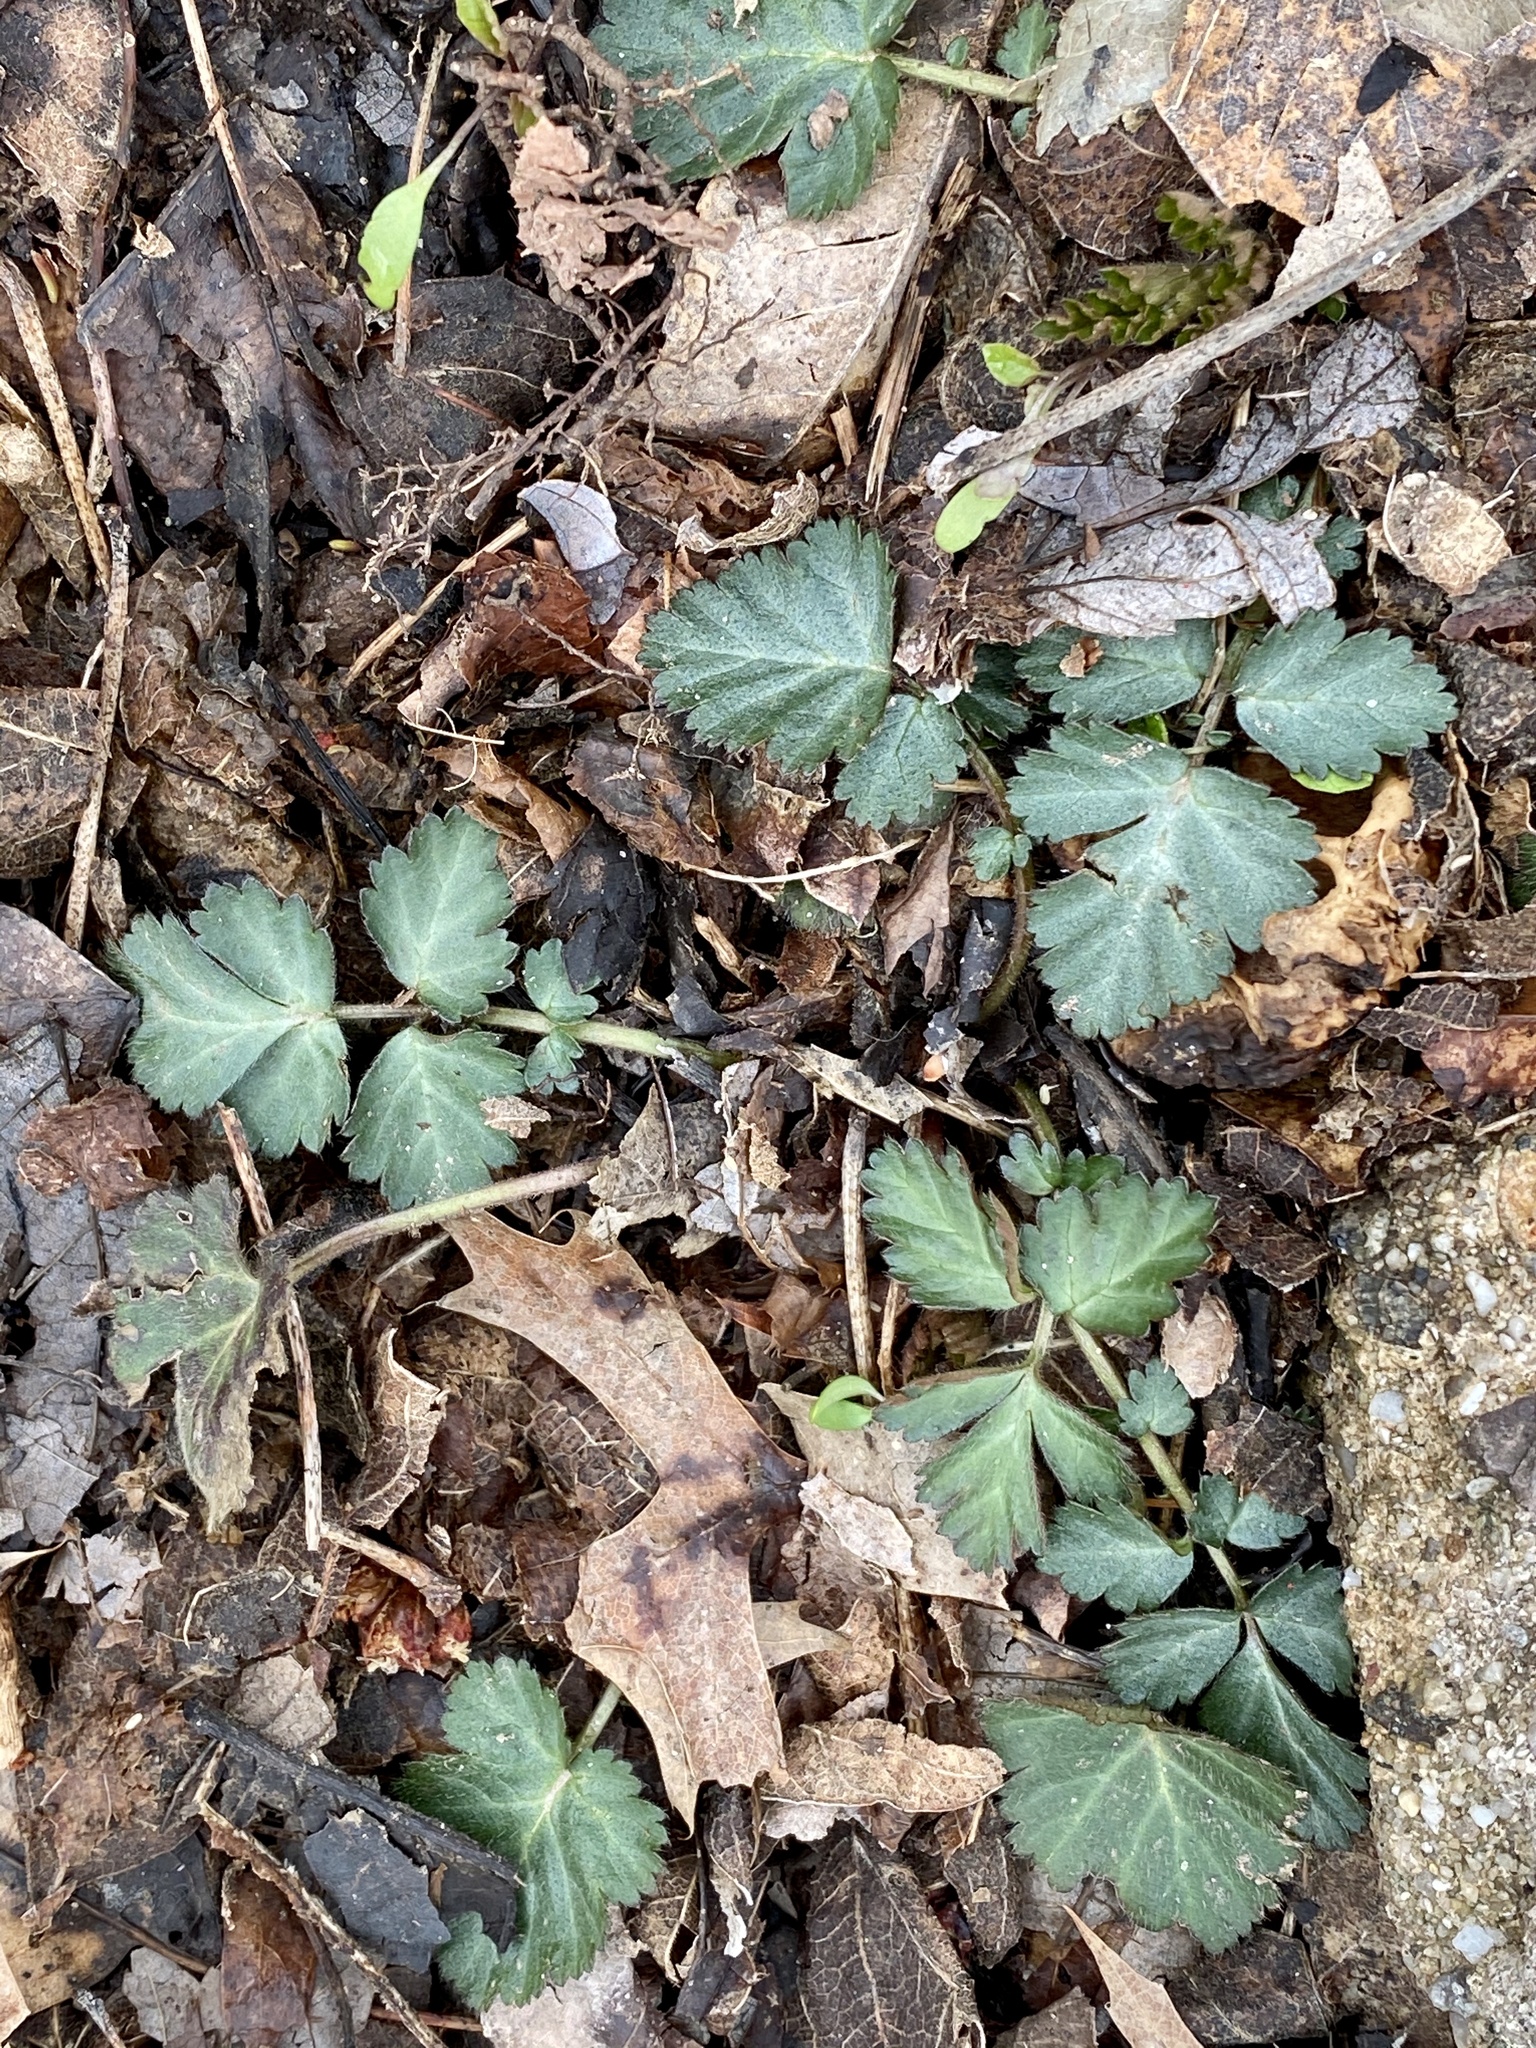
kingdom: Plantae
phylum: Tracheophyta
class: Magnoliopsida
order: Rosales
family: Rosaceae
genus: Geum
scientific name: Geum canadense
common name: White avens
